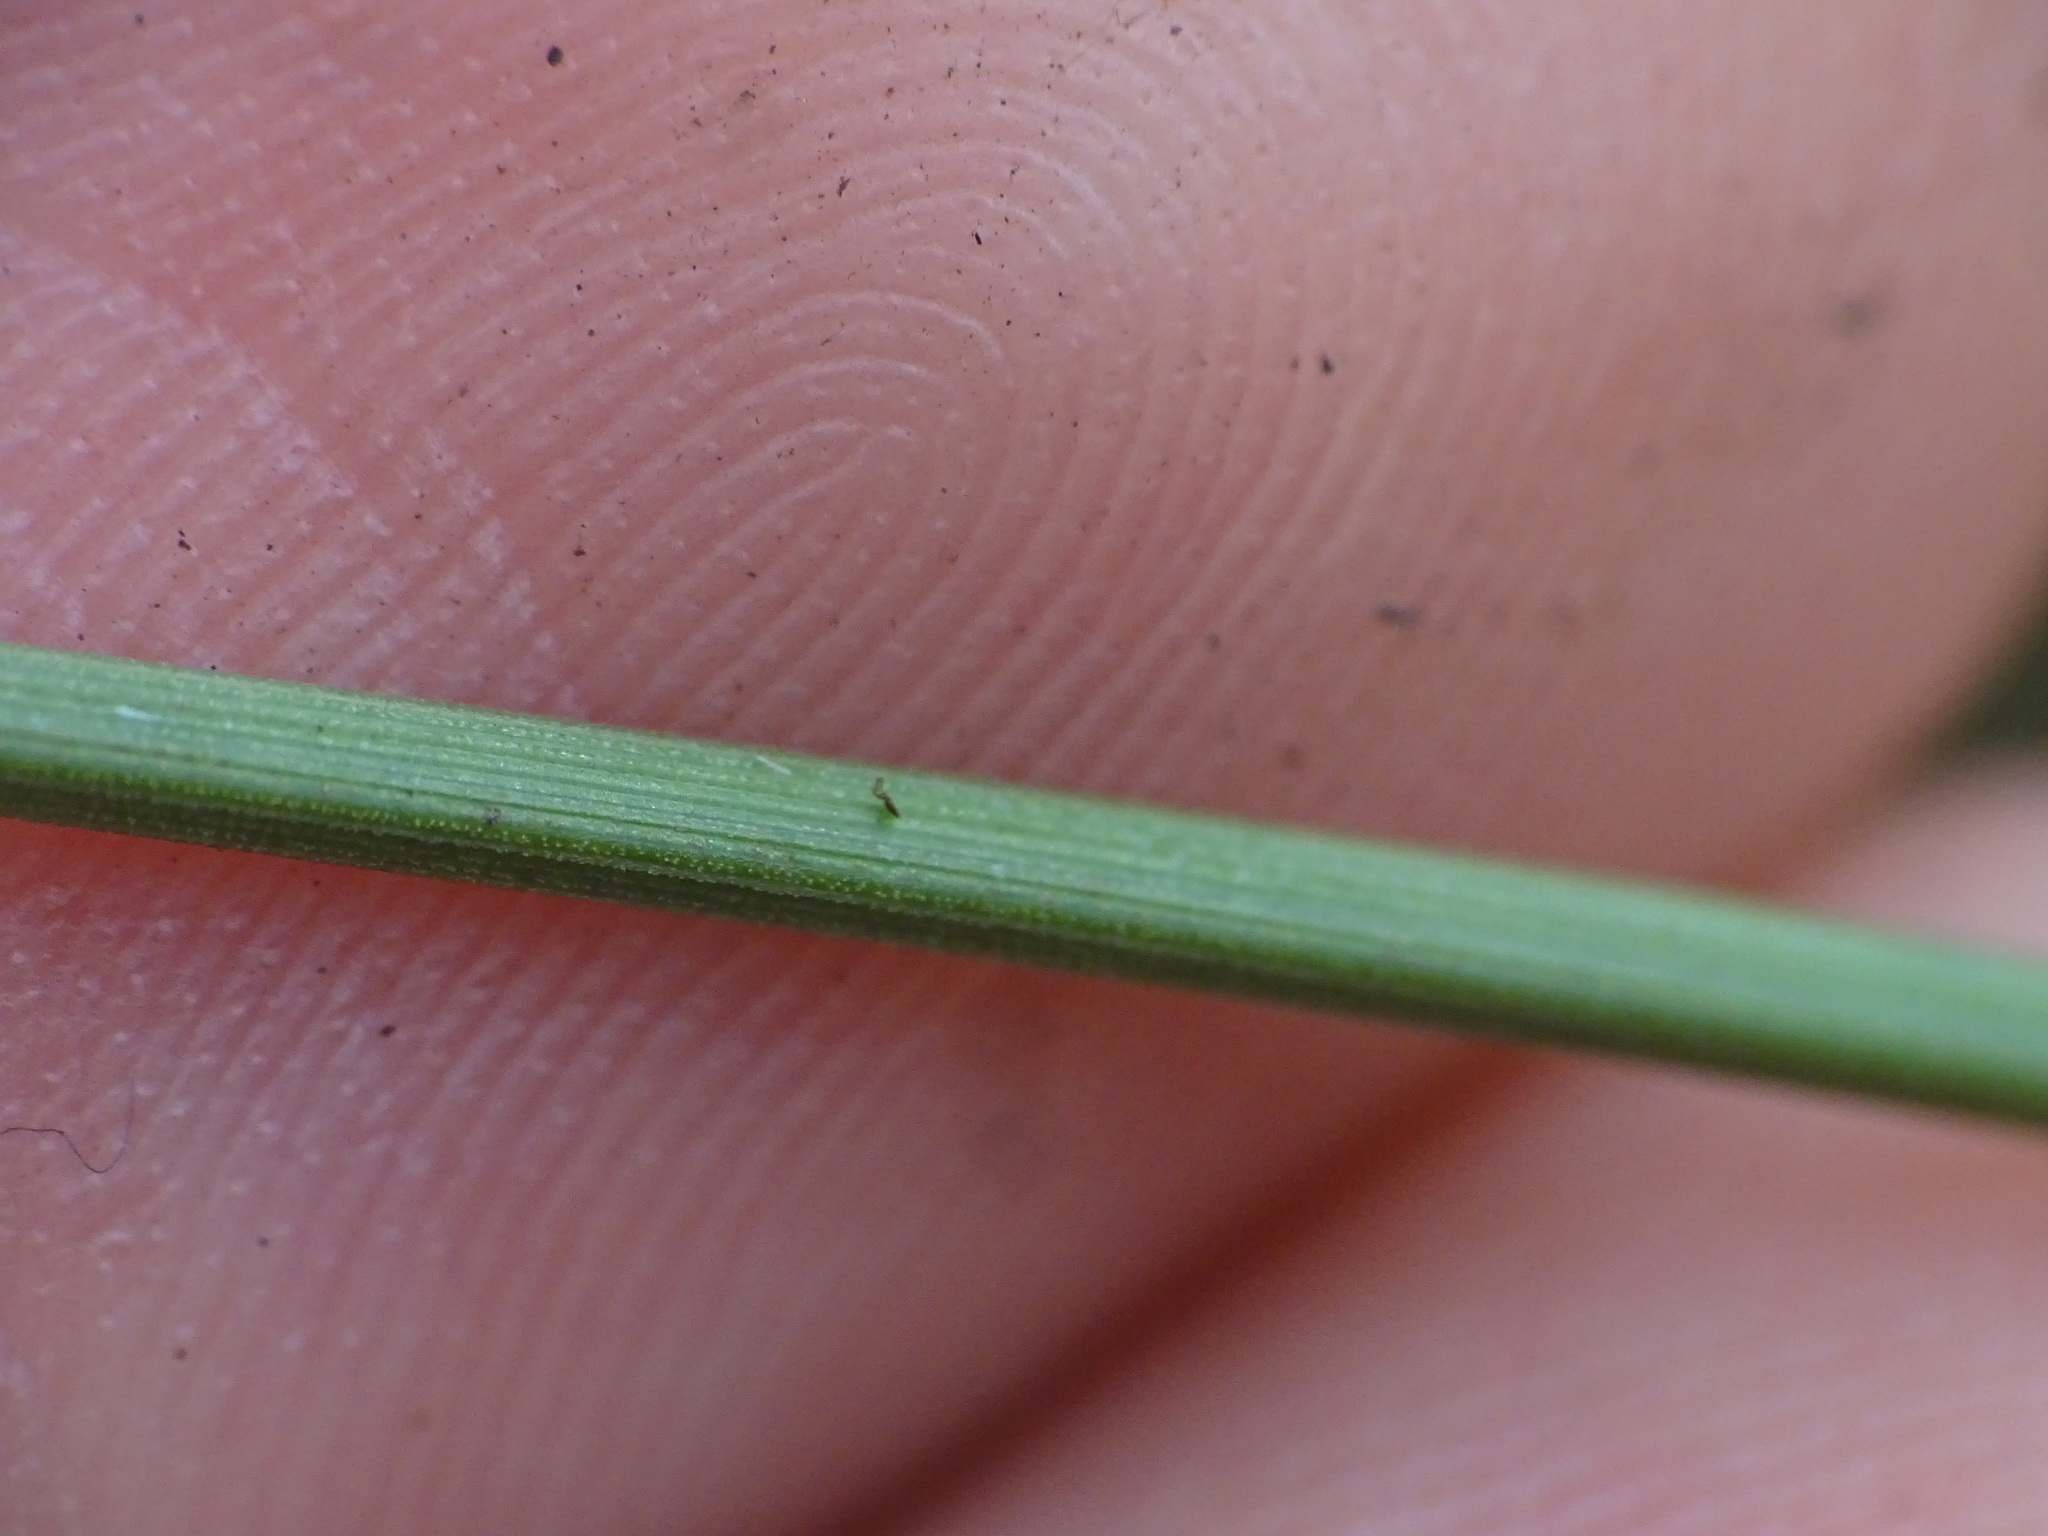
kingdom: Plantae
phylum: Tracheophyta
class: Liliopsida
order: Poales
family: Cyperaceae
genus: Eriophorum
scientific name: Eriophorum tenellum
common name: Few-nerved cottongrass
